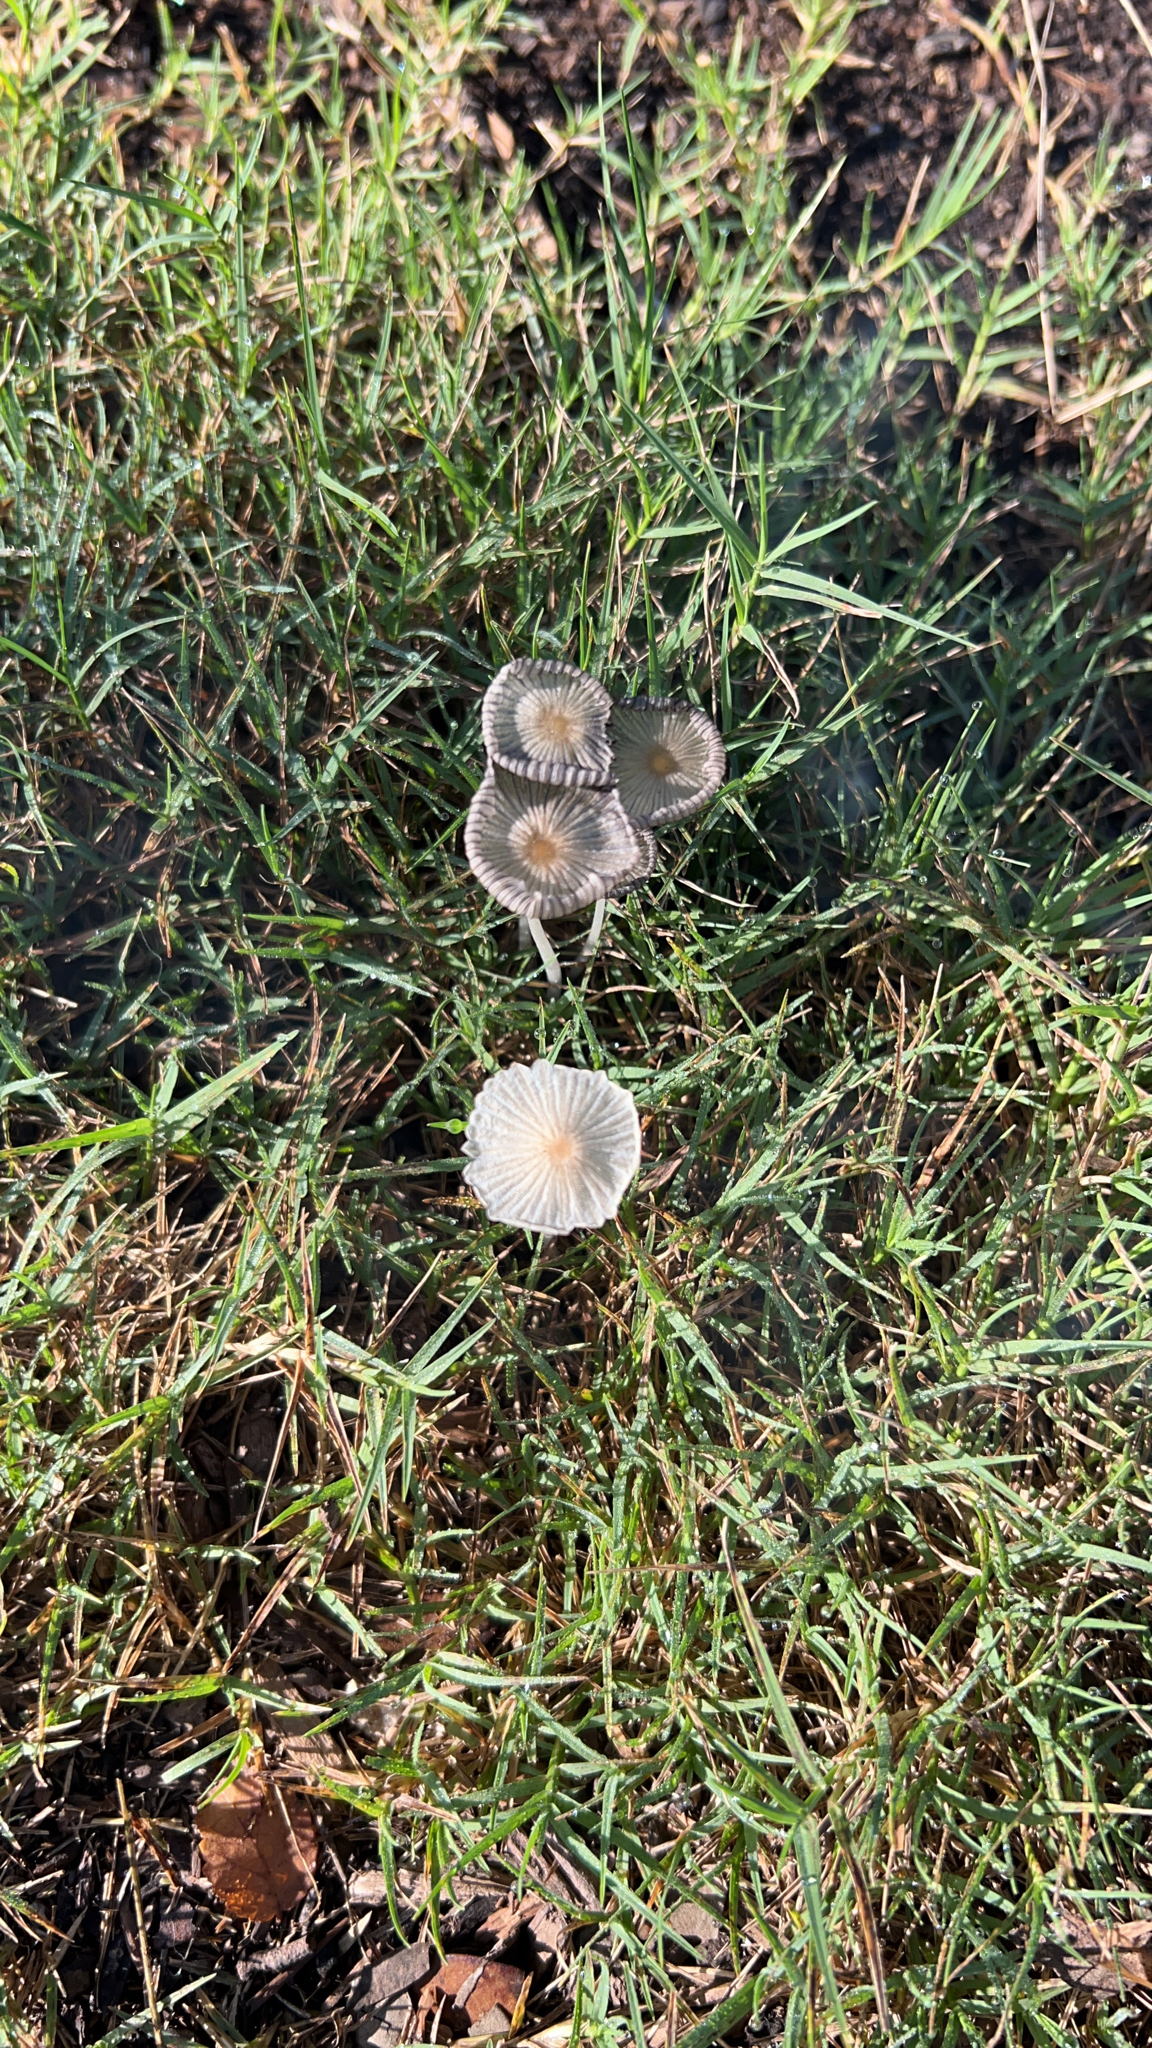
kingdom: Fungi
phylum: Basidiomycota
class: Agaricomycetes
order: Agaricales
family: Psathyrellaceae
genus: Parasola
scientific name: Parasola plicatilis
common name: Pleated inkcap
